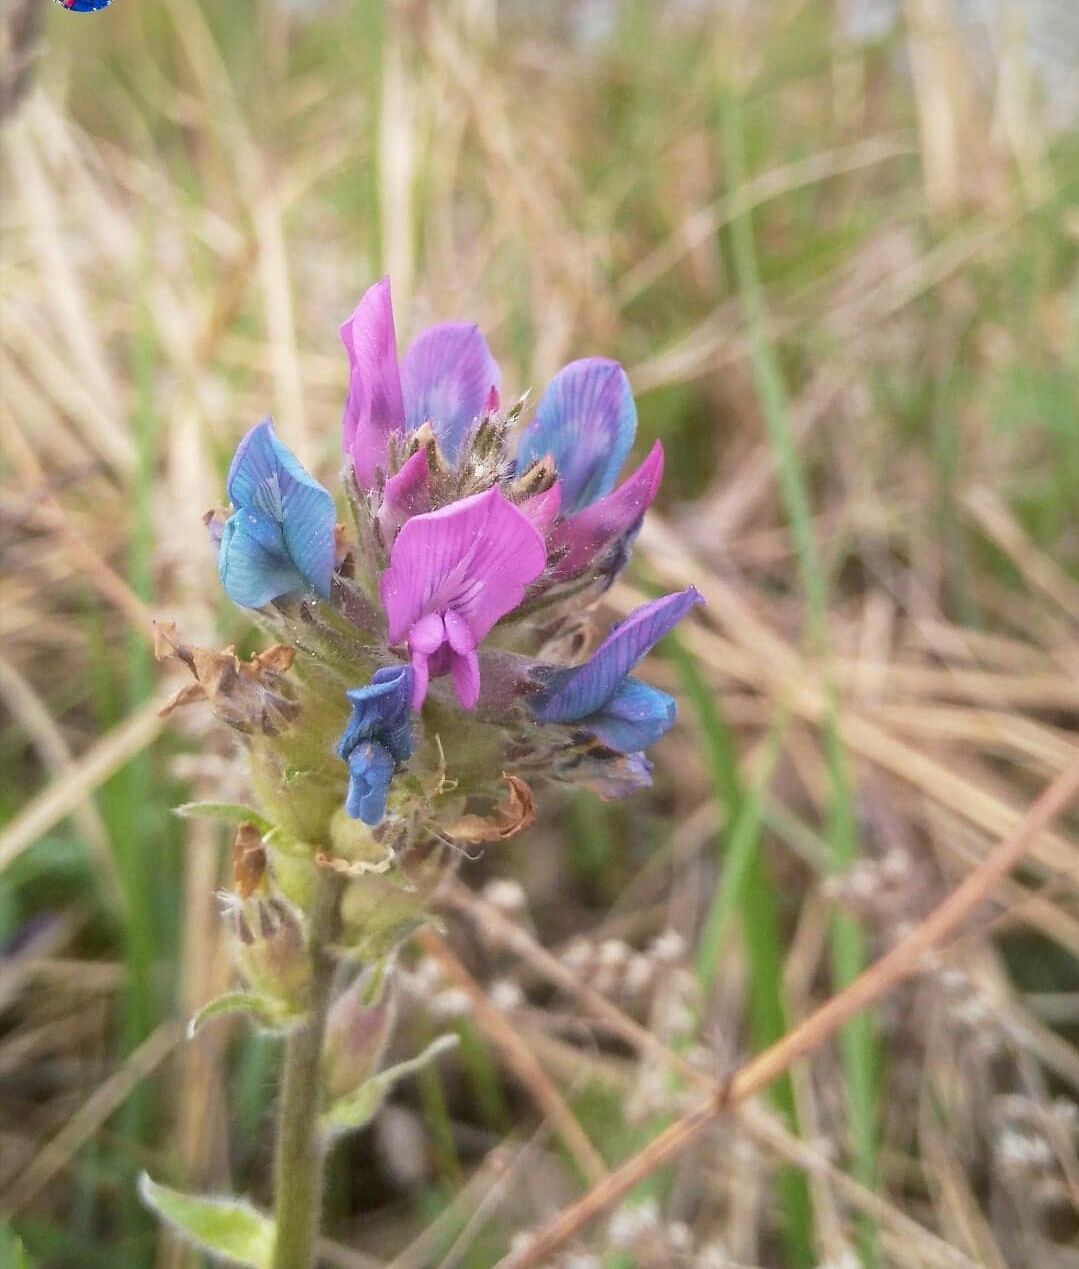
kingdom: Plantae
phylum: Tracheophyta
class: Magnoliopsida
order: Fabales
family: Fabaceae
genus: Oxytropis
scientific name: Oxytropis strobilacea
